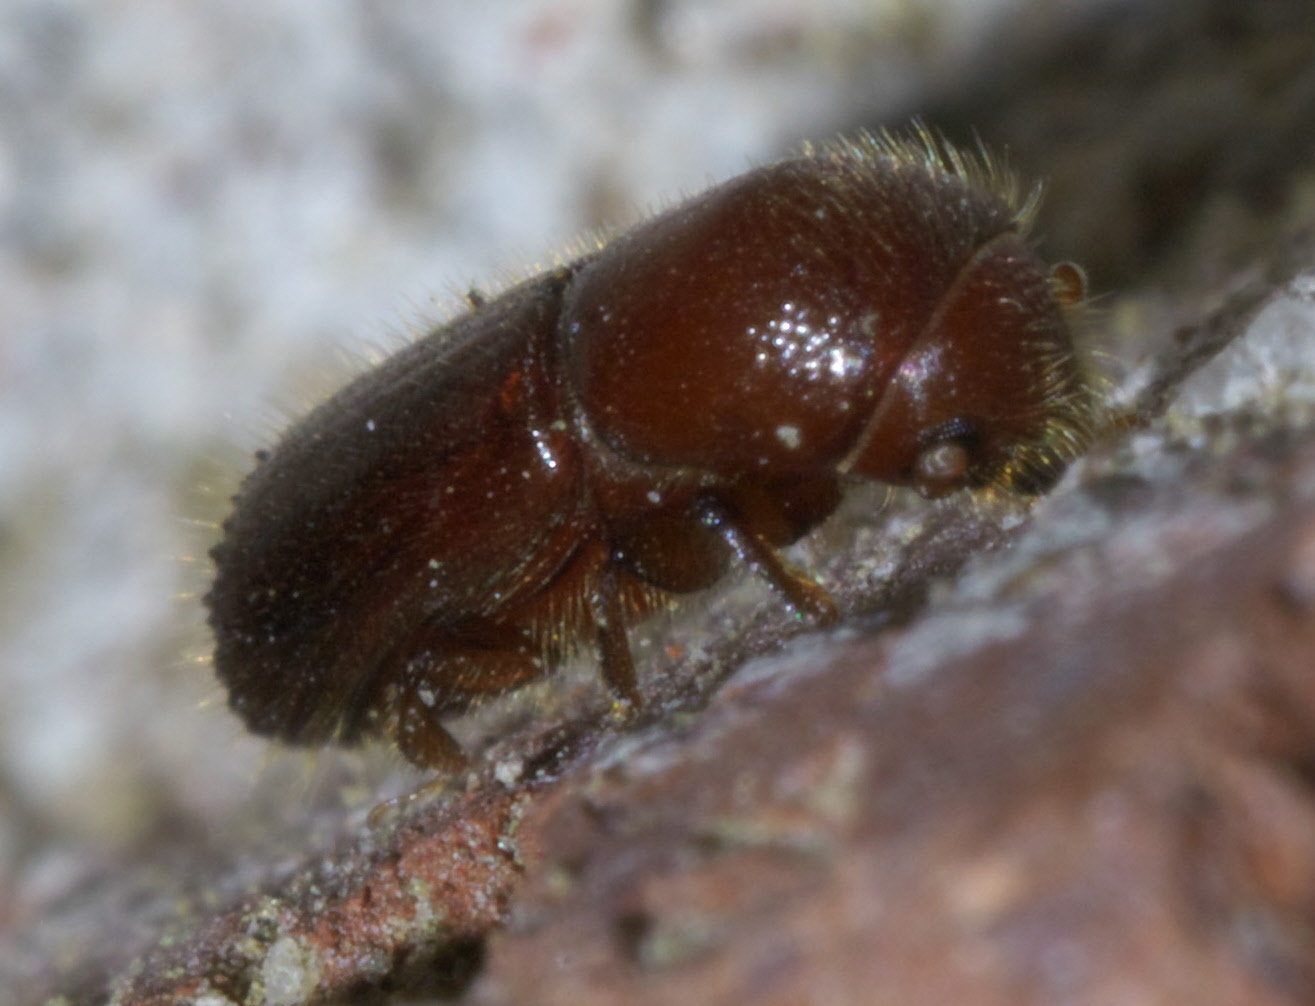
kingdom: Animalia
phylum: Arthropoda
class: Insecta
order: Coleoptera
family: Curculionidae
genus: Xyleborus
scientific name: Xyleborus celsus
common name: Weevil
